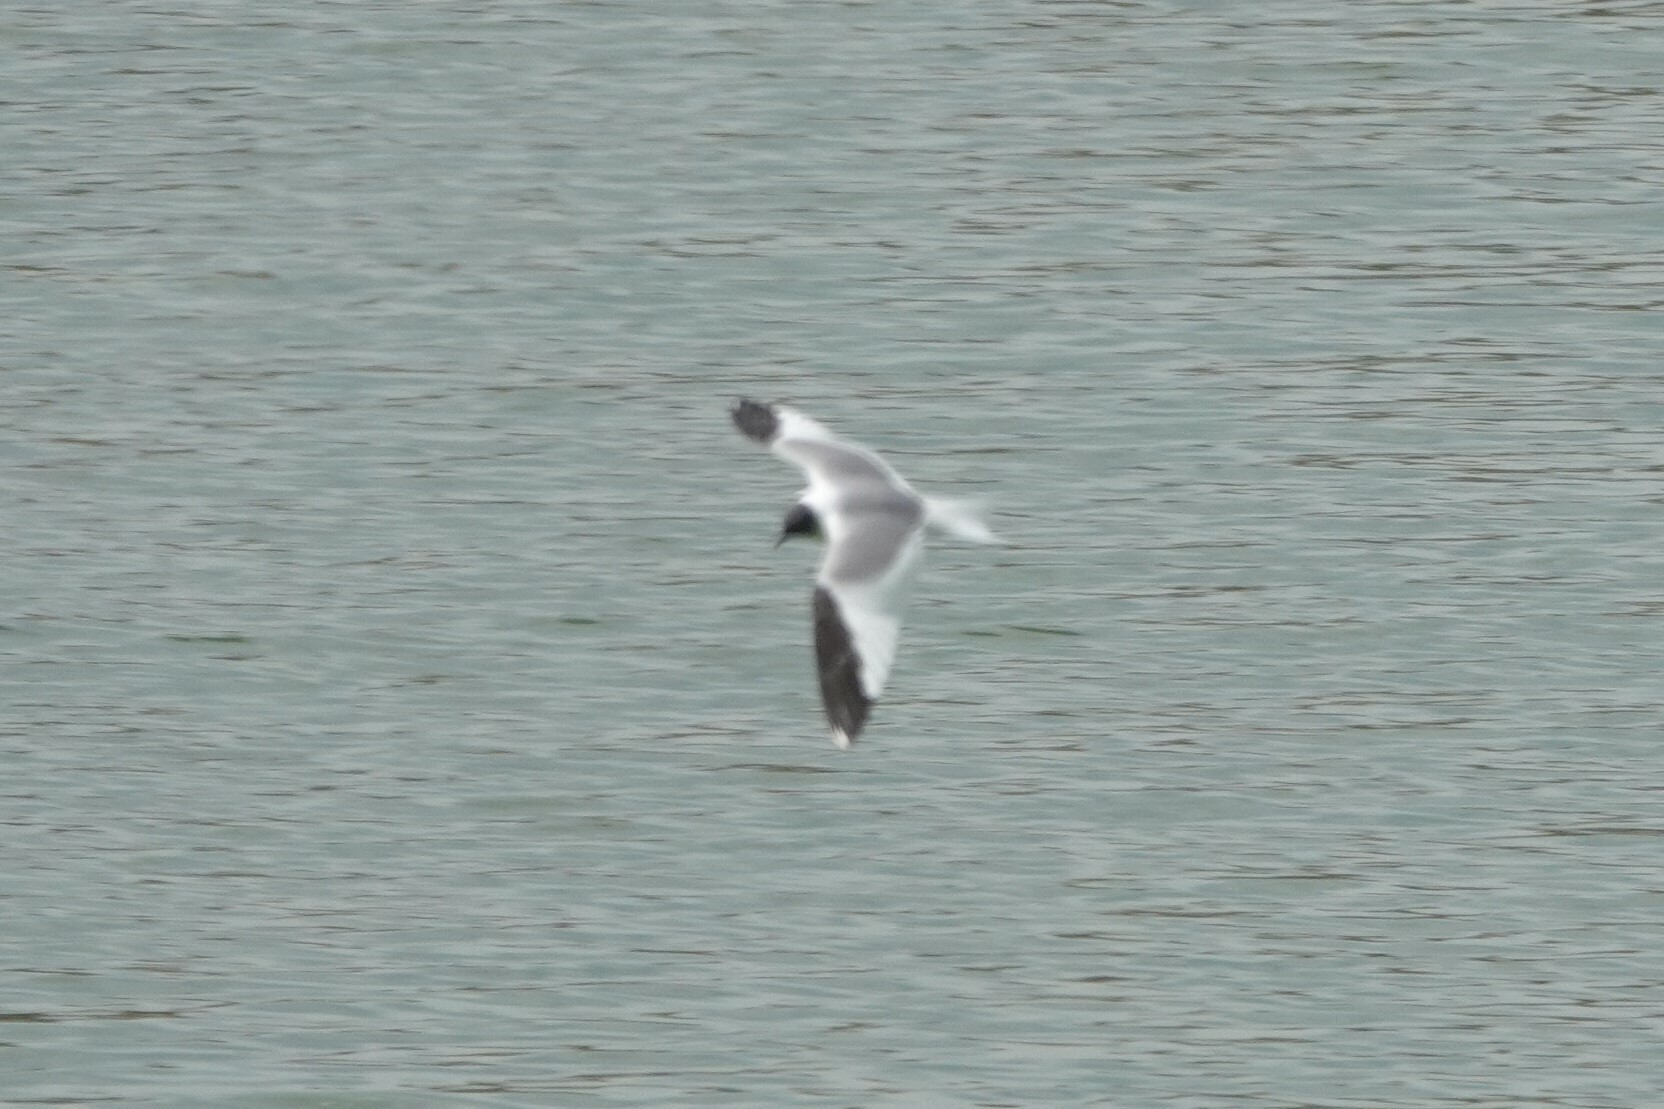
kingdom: Animalia
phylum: Chordata
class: Aves
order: Charadriiformes
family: Laridae
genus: Xema
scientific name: Xema sabini
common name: Sabine's gull
